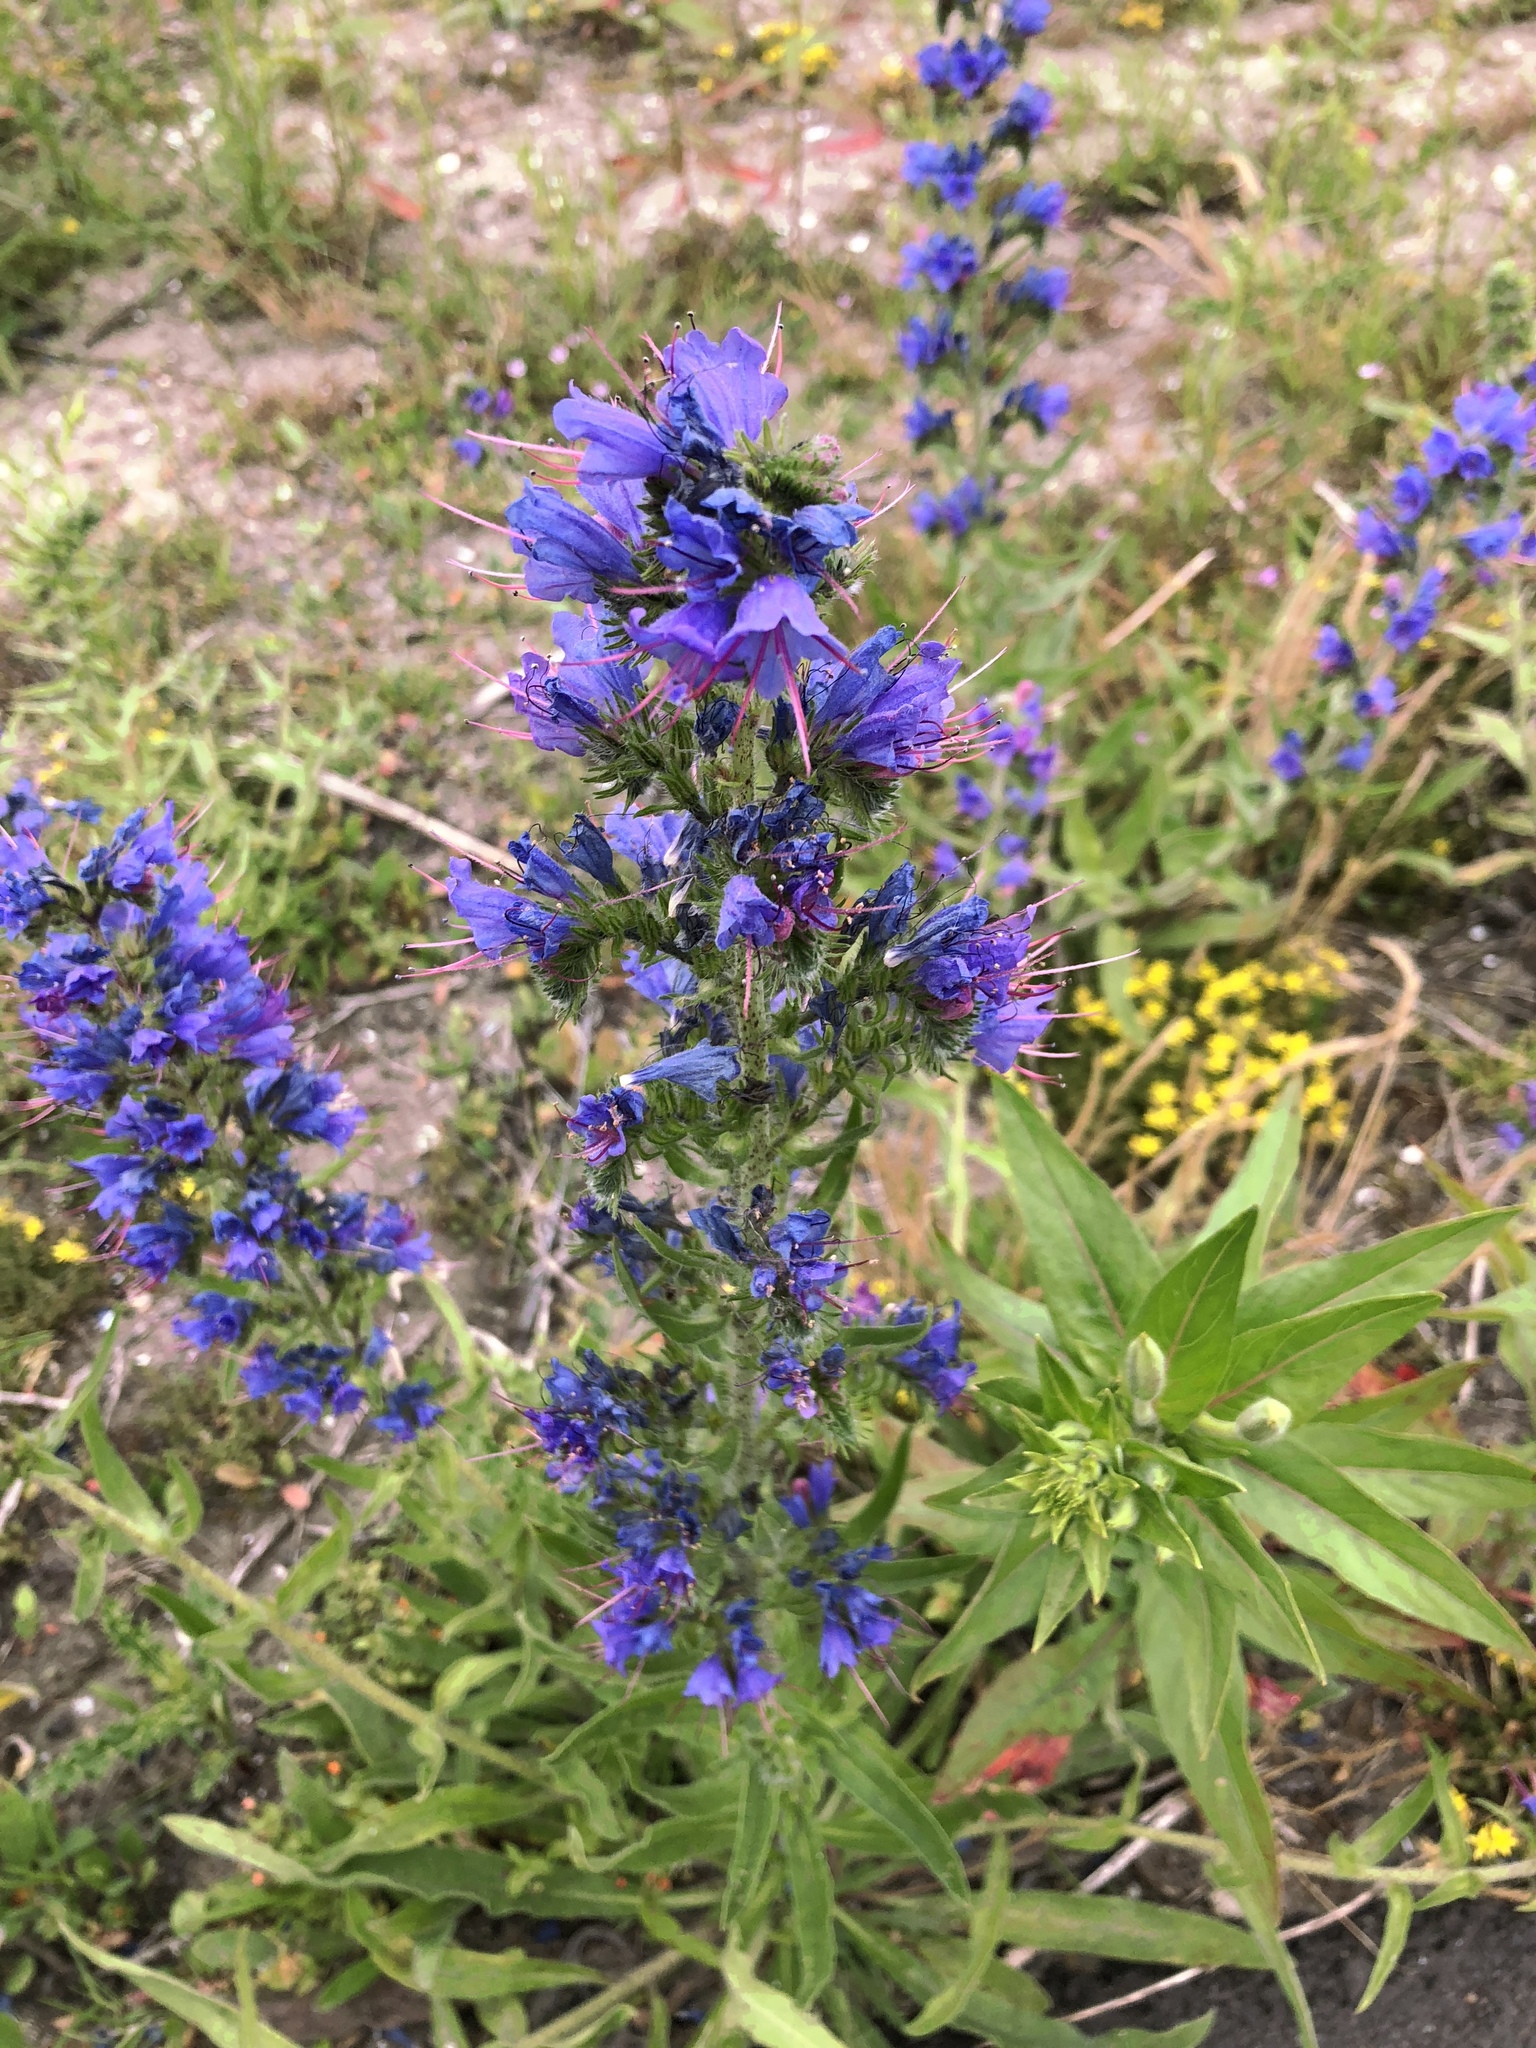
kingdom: Plantae
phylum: Tracheophyta
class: Magnoliopsida
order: Boraginales
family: Boraginaceae
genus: Echium
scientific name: Echium vulgare
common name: Common viper's bugloss
